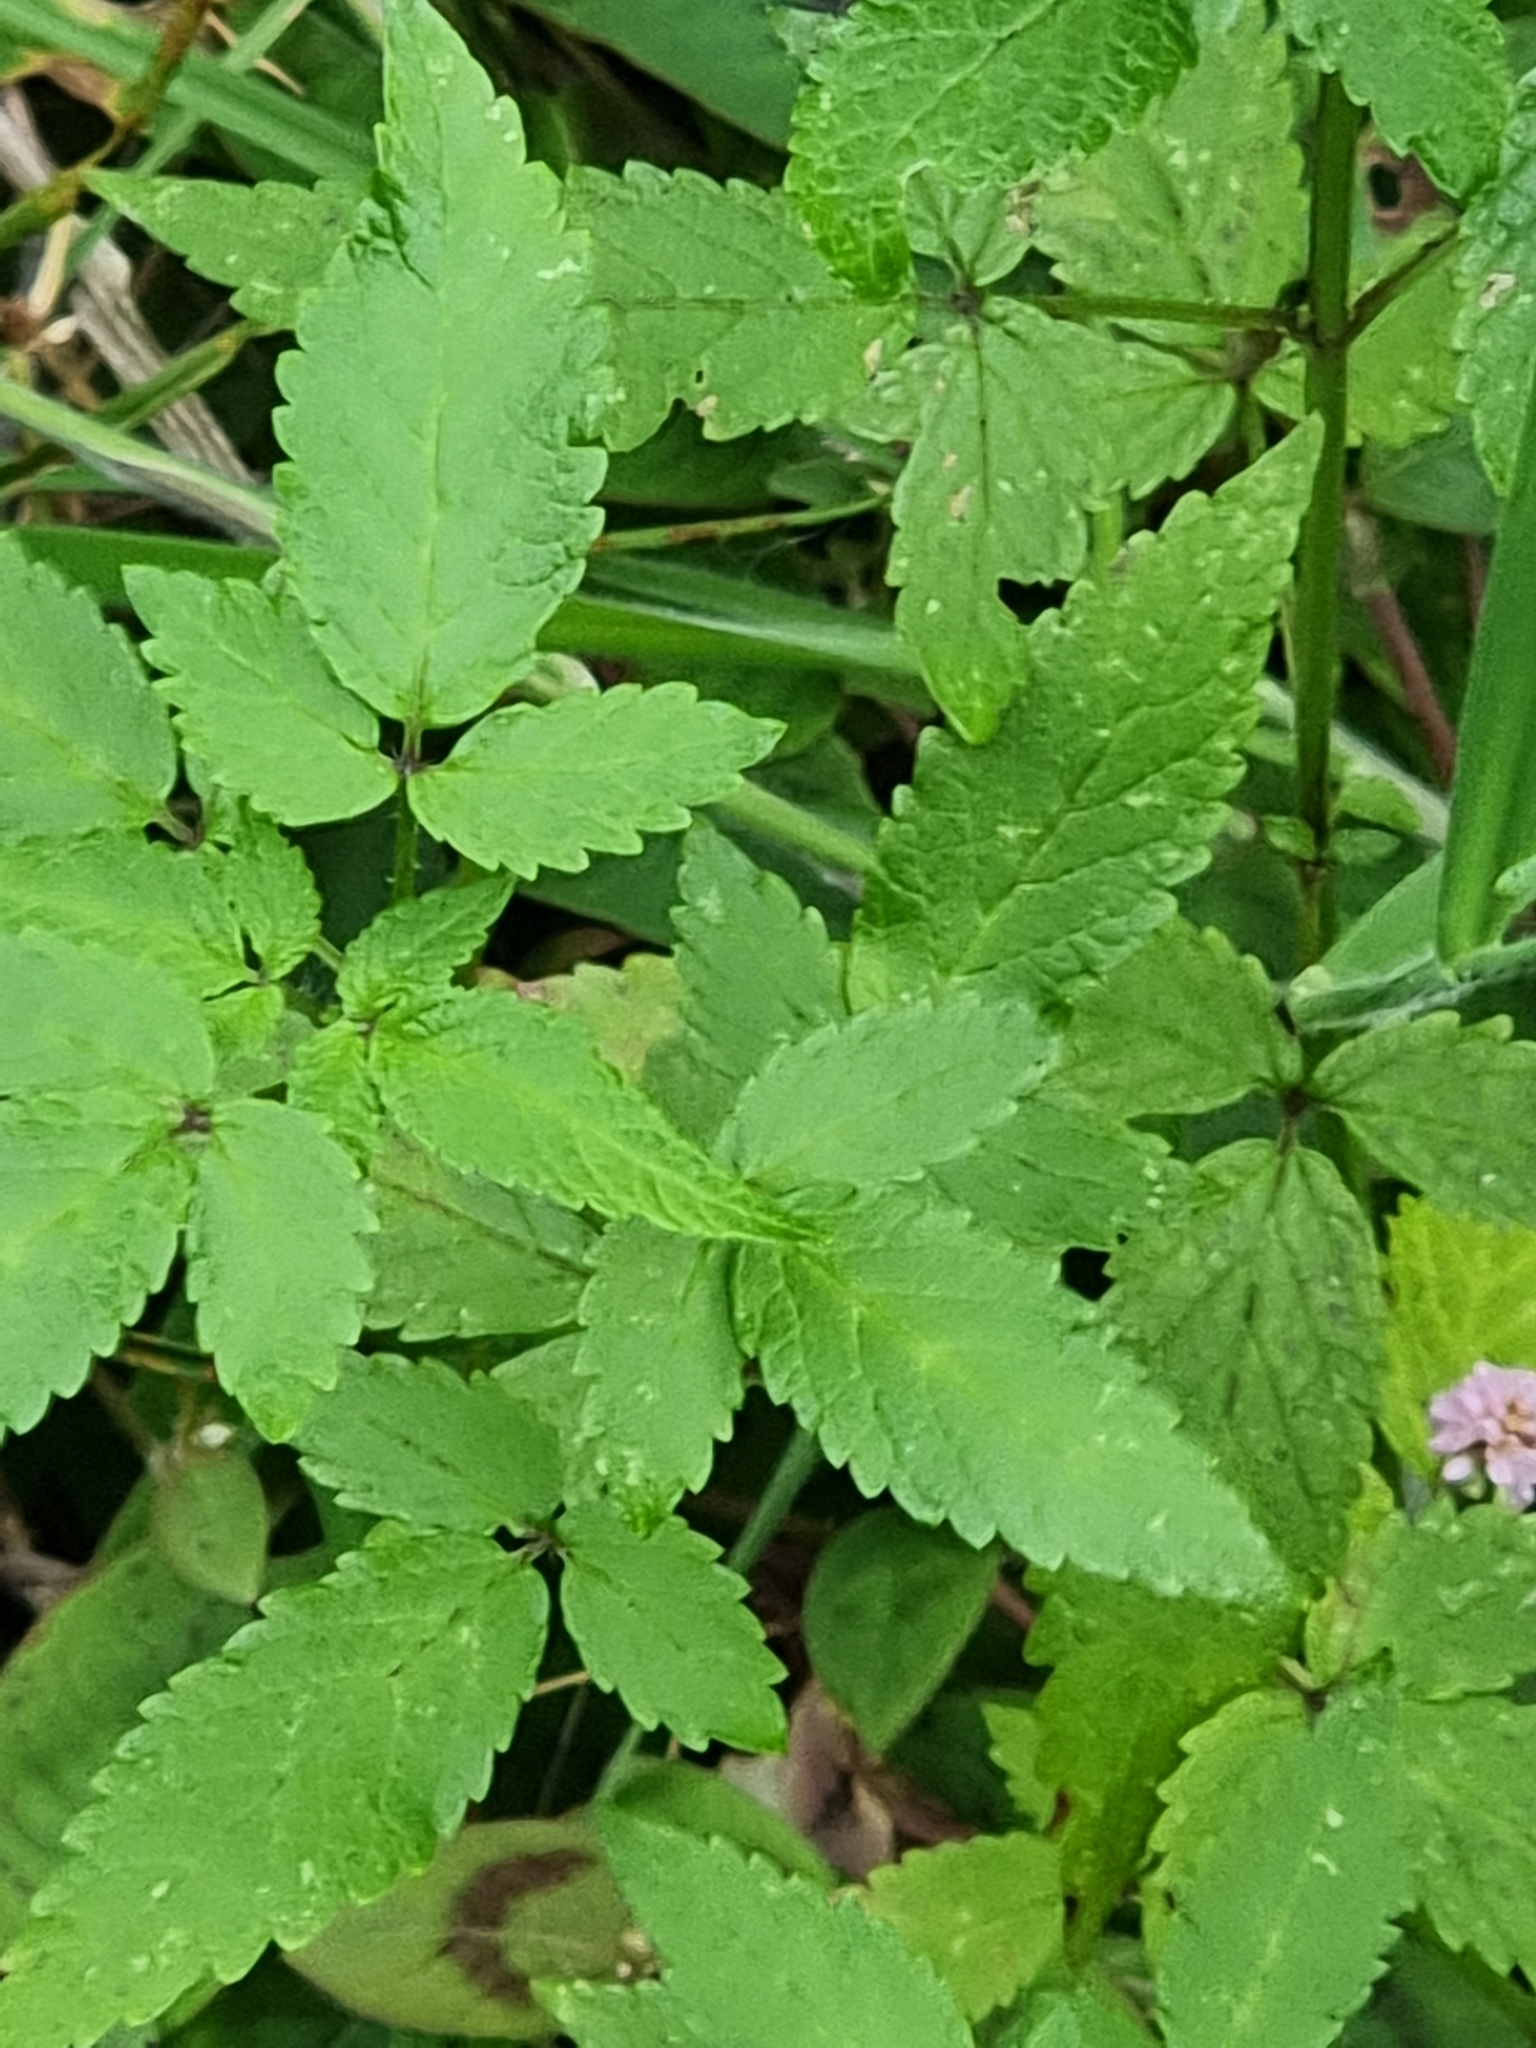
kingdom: Plantae
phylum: Tracheophyta
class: Magnoliopsida
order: Lamiales
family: Lamiaceae
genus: Cedronella
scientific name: Cedronella canariensis
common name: Canary islands balm
